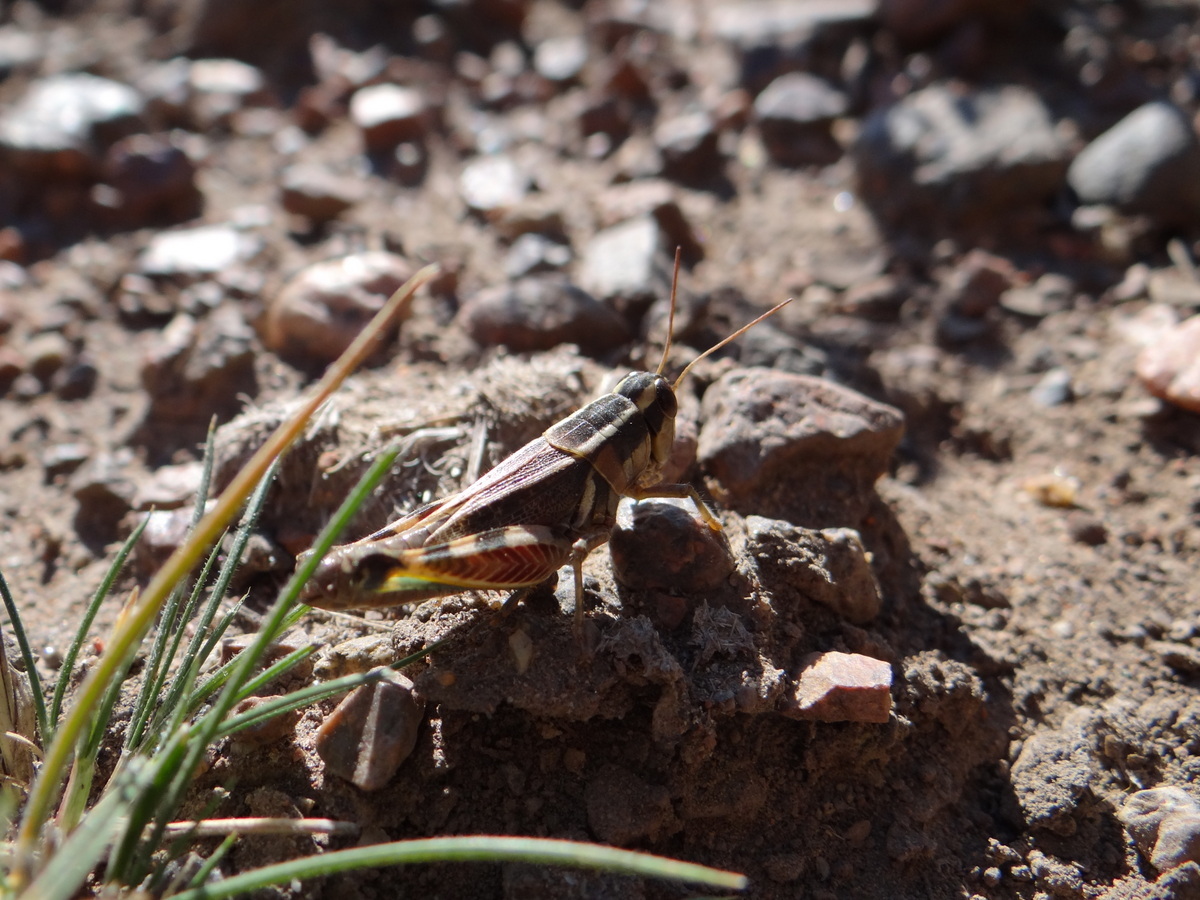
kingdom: Animalia
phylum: Arthropoda
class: Insecta
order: Orthoptera
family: Acrididae
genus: Dichroplus
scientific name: Dichroplus vittatus
